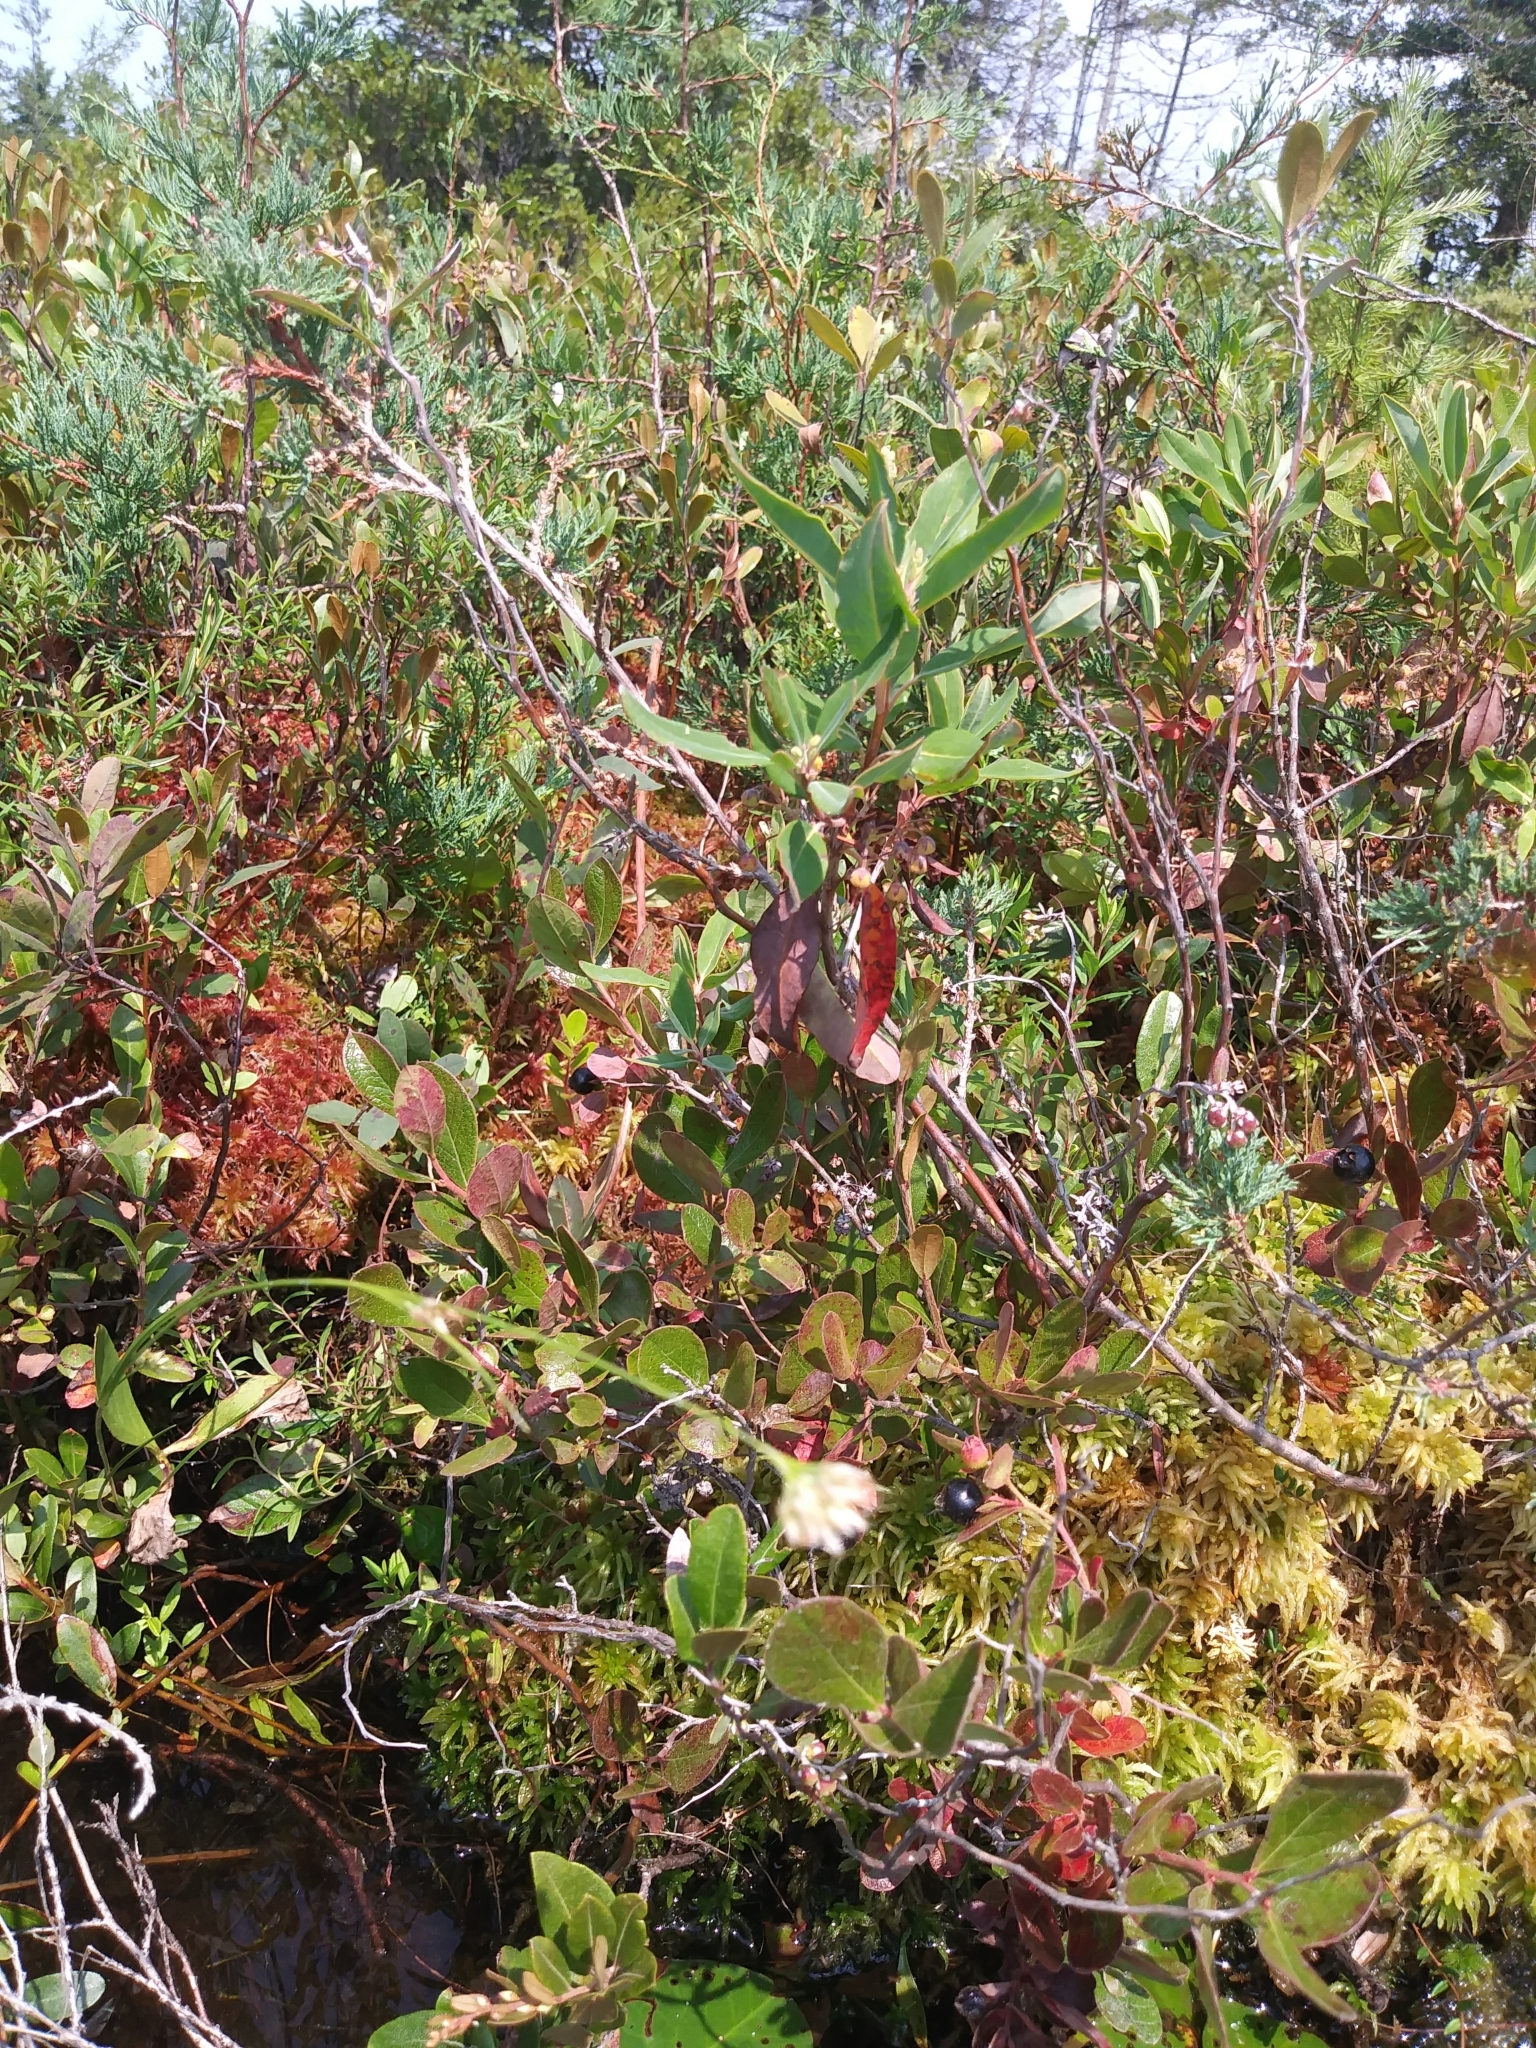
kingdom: Plantae
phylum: Tracheophyta
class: Liliopsida
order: Poales
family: Cyperaceae
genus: Rhynchospora
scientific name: Rhynchospora alba
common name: White beak-sedge
